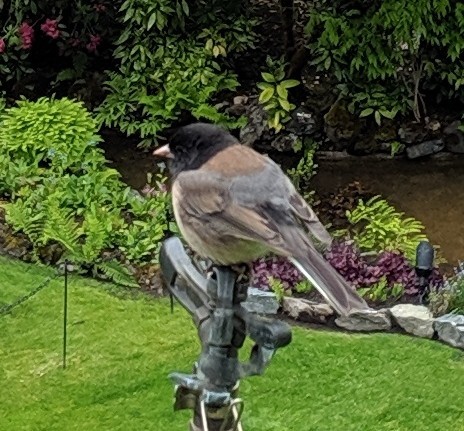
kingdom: Animalia
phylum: Chordata
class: Aves
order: Passeriformes
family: Passerellidae
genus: Junco
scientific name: Junco hyemalis
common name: Dark-eyed junco
